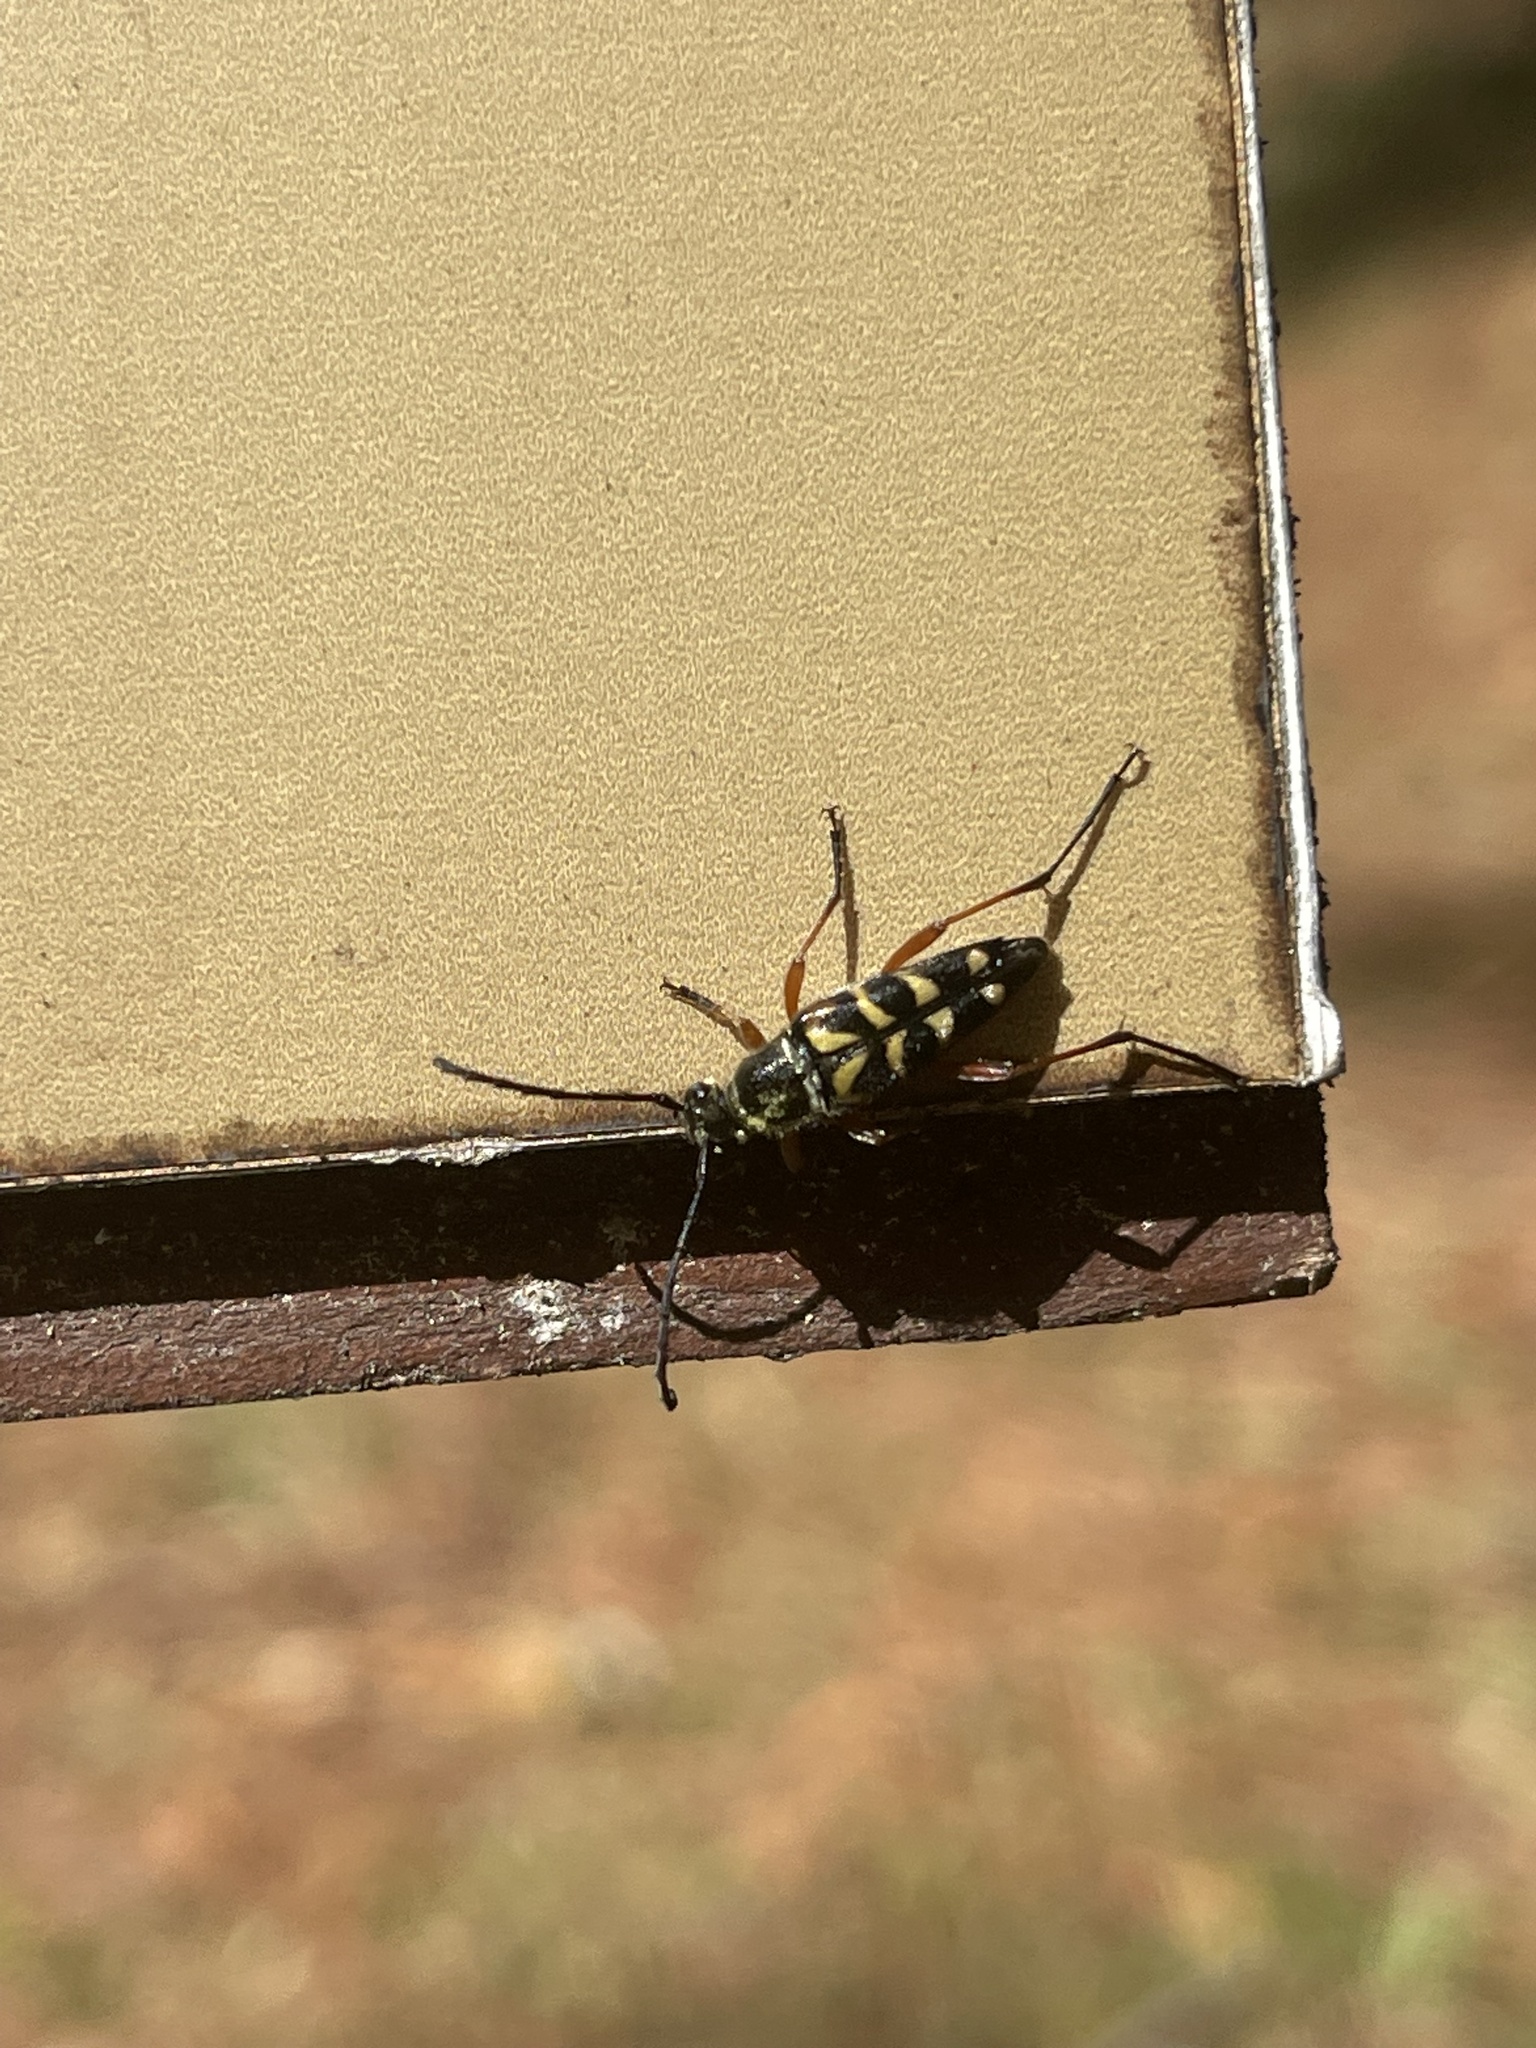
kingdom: Animalia
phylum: Arthropoda
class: Insecta
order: Coleoptera
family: Cerambycidae
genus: Typocerus
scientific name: Typocerus zebra
